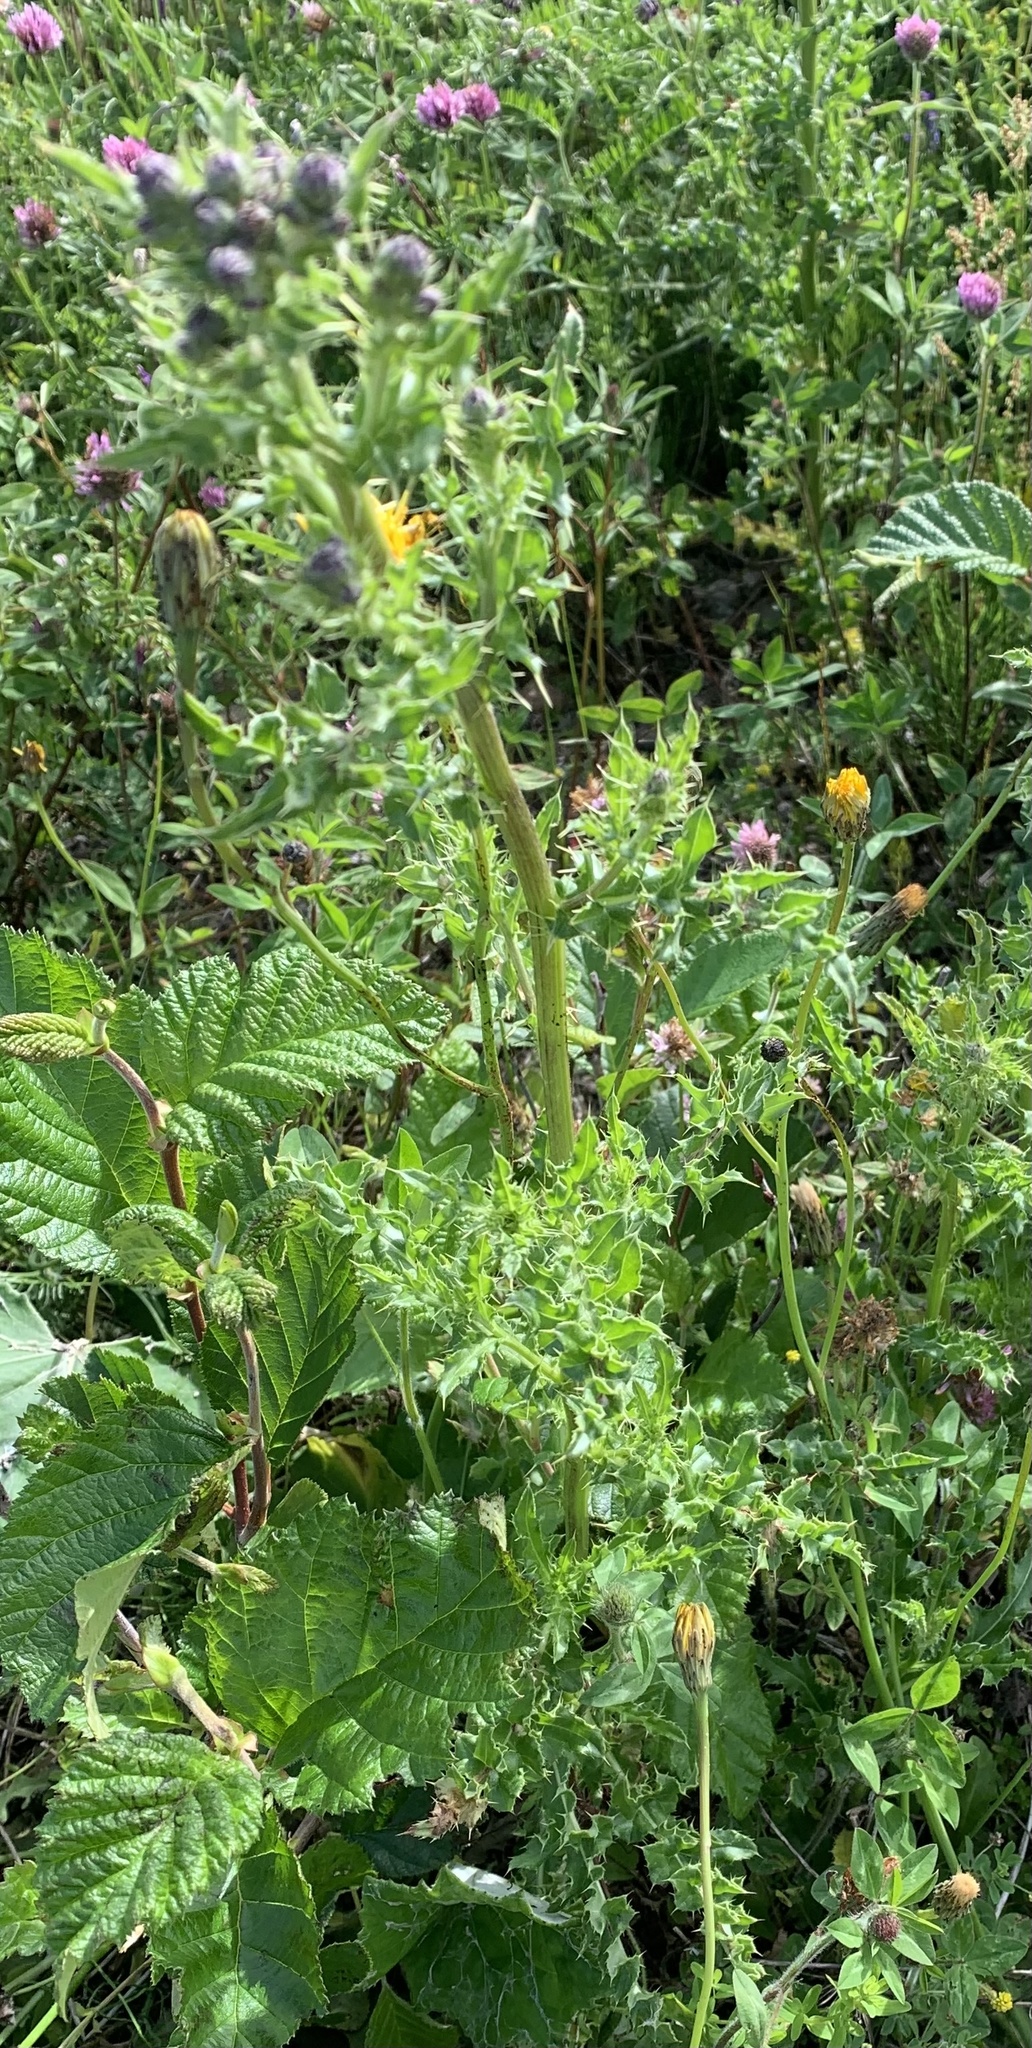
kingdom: Plantae
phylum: Tracheophyta
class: Magnoliopsida
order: Asterales
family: Asteraceae
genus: Cirsium
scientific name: Cirsium arvense
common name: Creeping thistle
